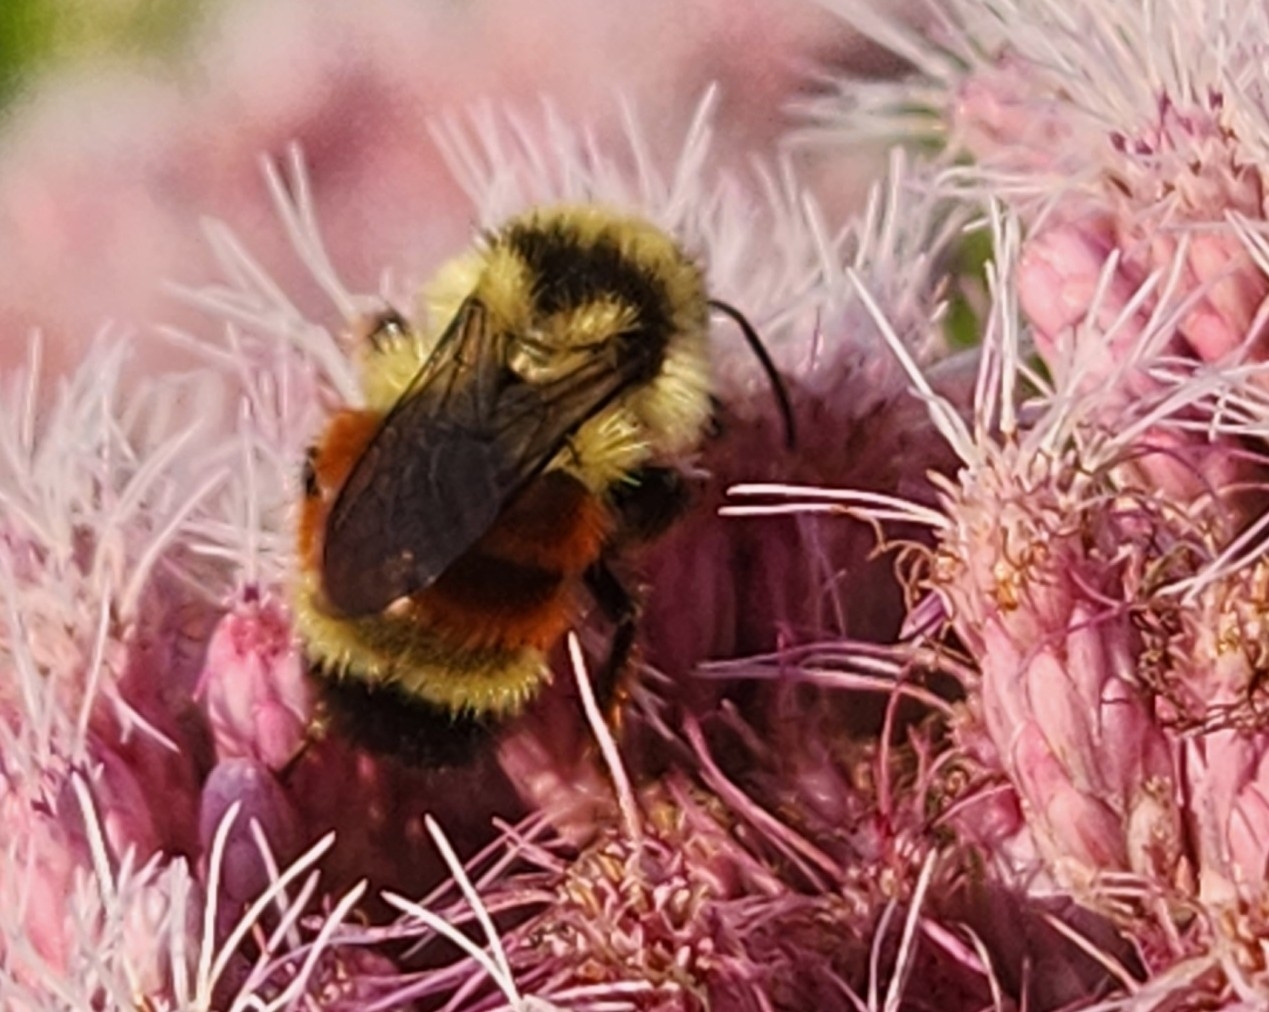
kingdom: Animalia
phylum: Arthropoda
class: Insecta
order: Hymenoptera
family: Apidae
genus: Bombus
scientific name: Bombus ternarius
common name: Tri-colored bumble bee
